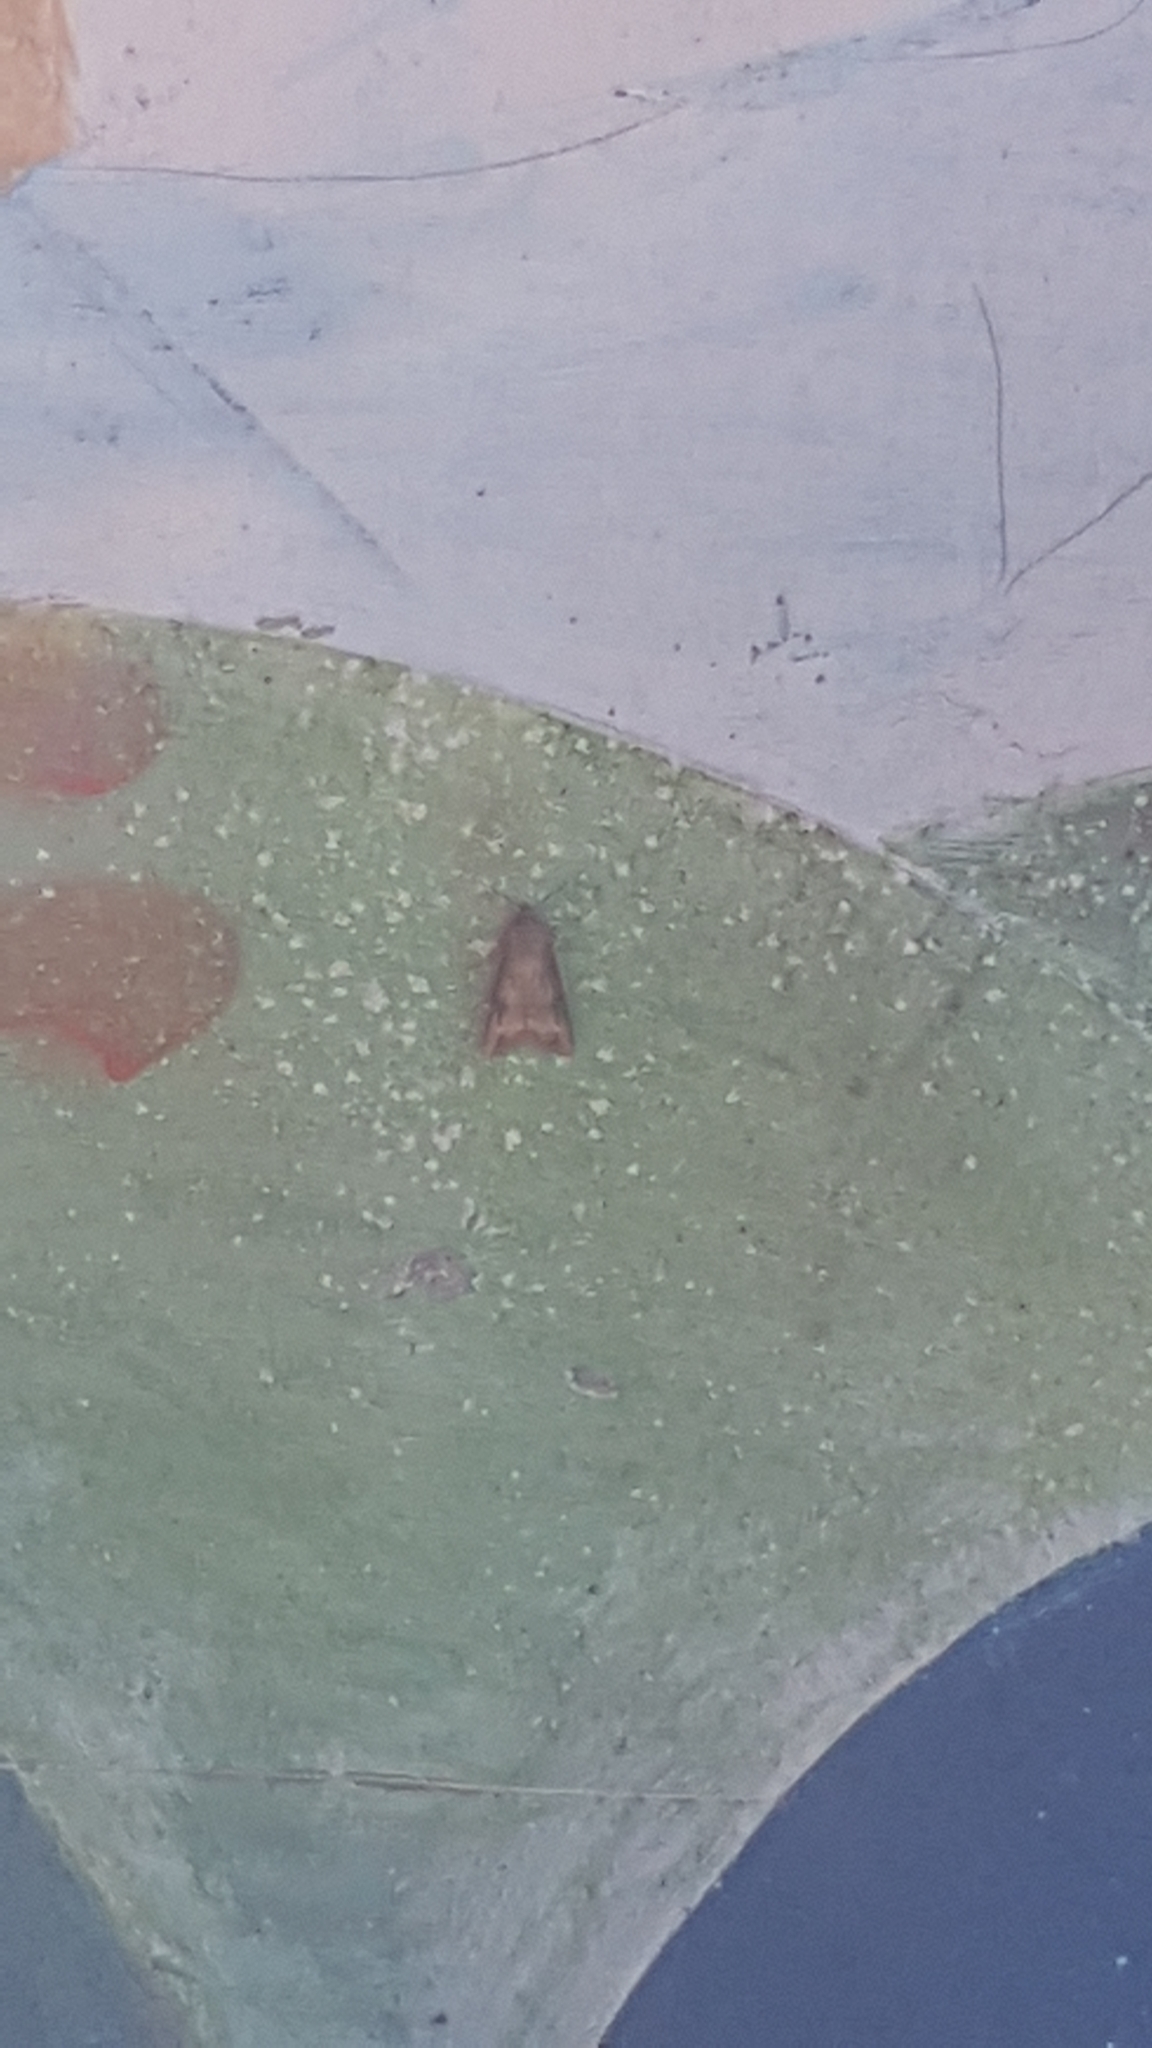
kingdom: Animalia
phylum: Arthropoda
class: Insecta
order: Lepidoptera
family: Noctuidae
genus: Agrotis
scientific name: Agrotis ipsilon
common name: Dark sword-grass
